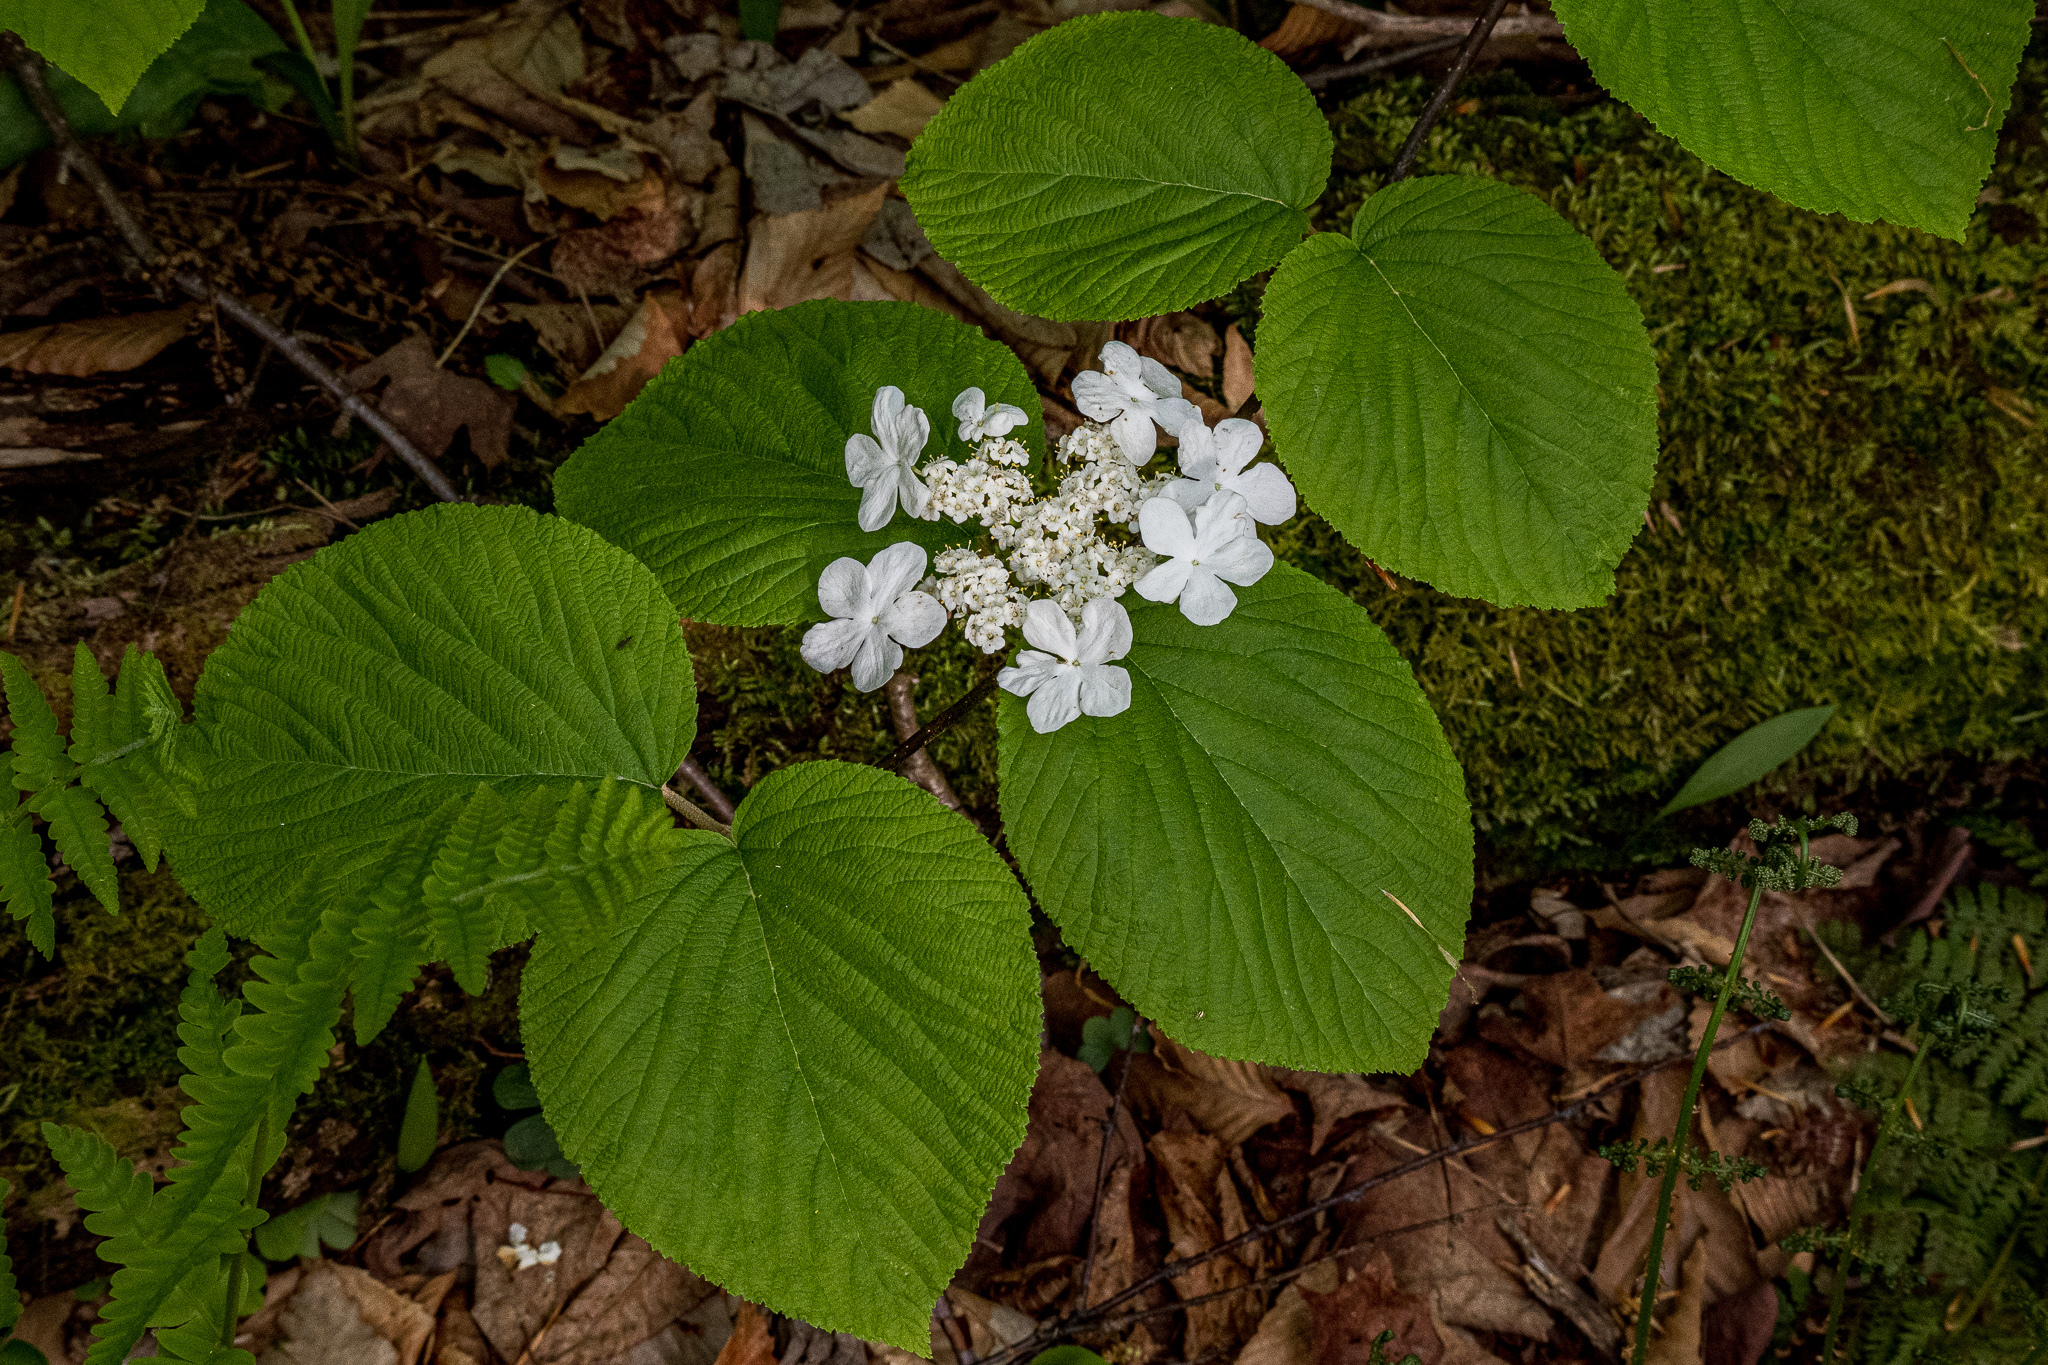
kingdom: Plantae
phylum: Tracheophyta
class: Magnoliopsida
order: Dipsacales
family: Viburnaceae
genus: Viburnum
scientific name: Viburnum lantanoides
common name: Hobblebush
